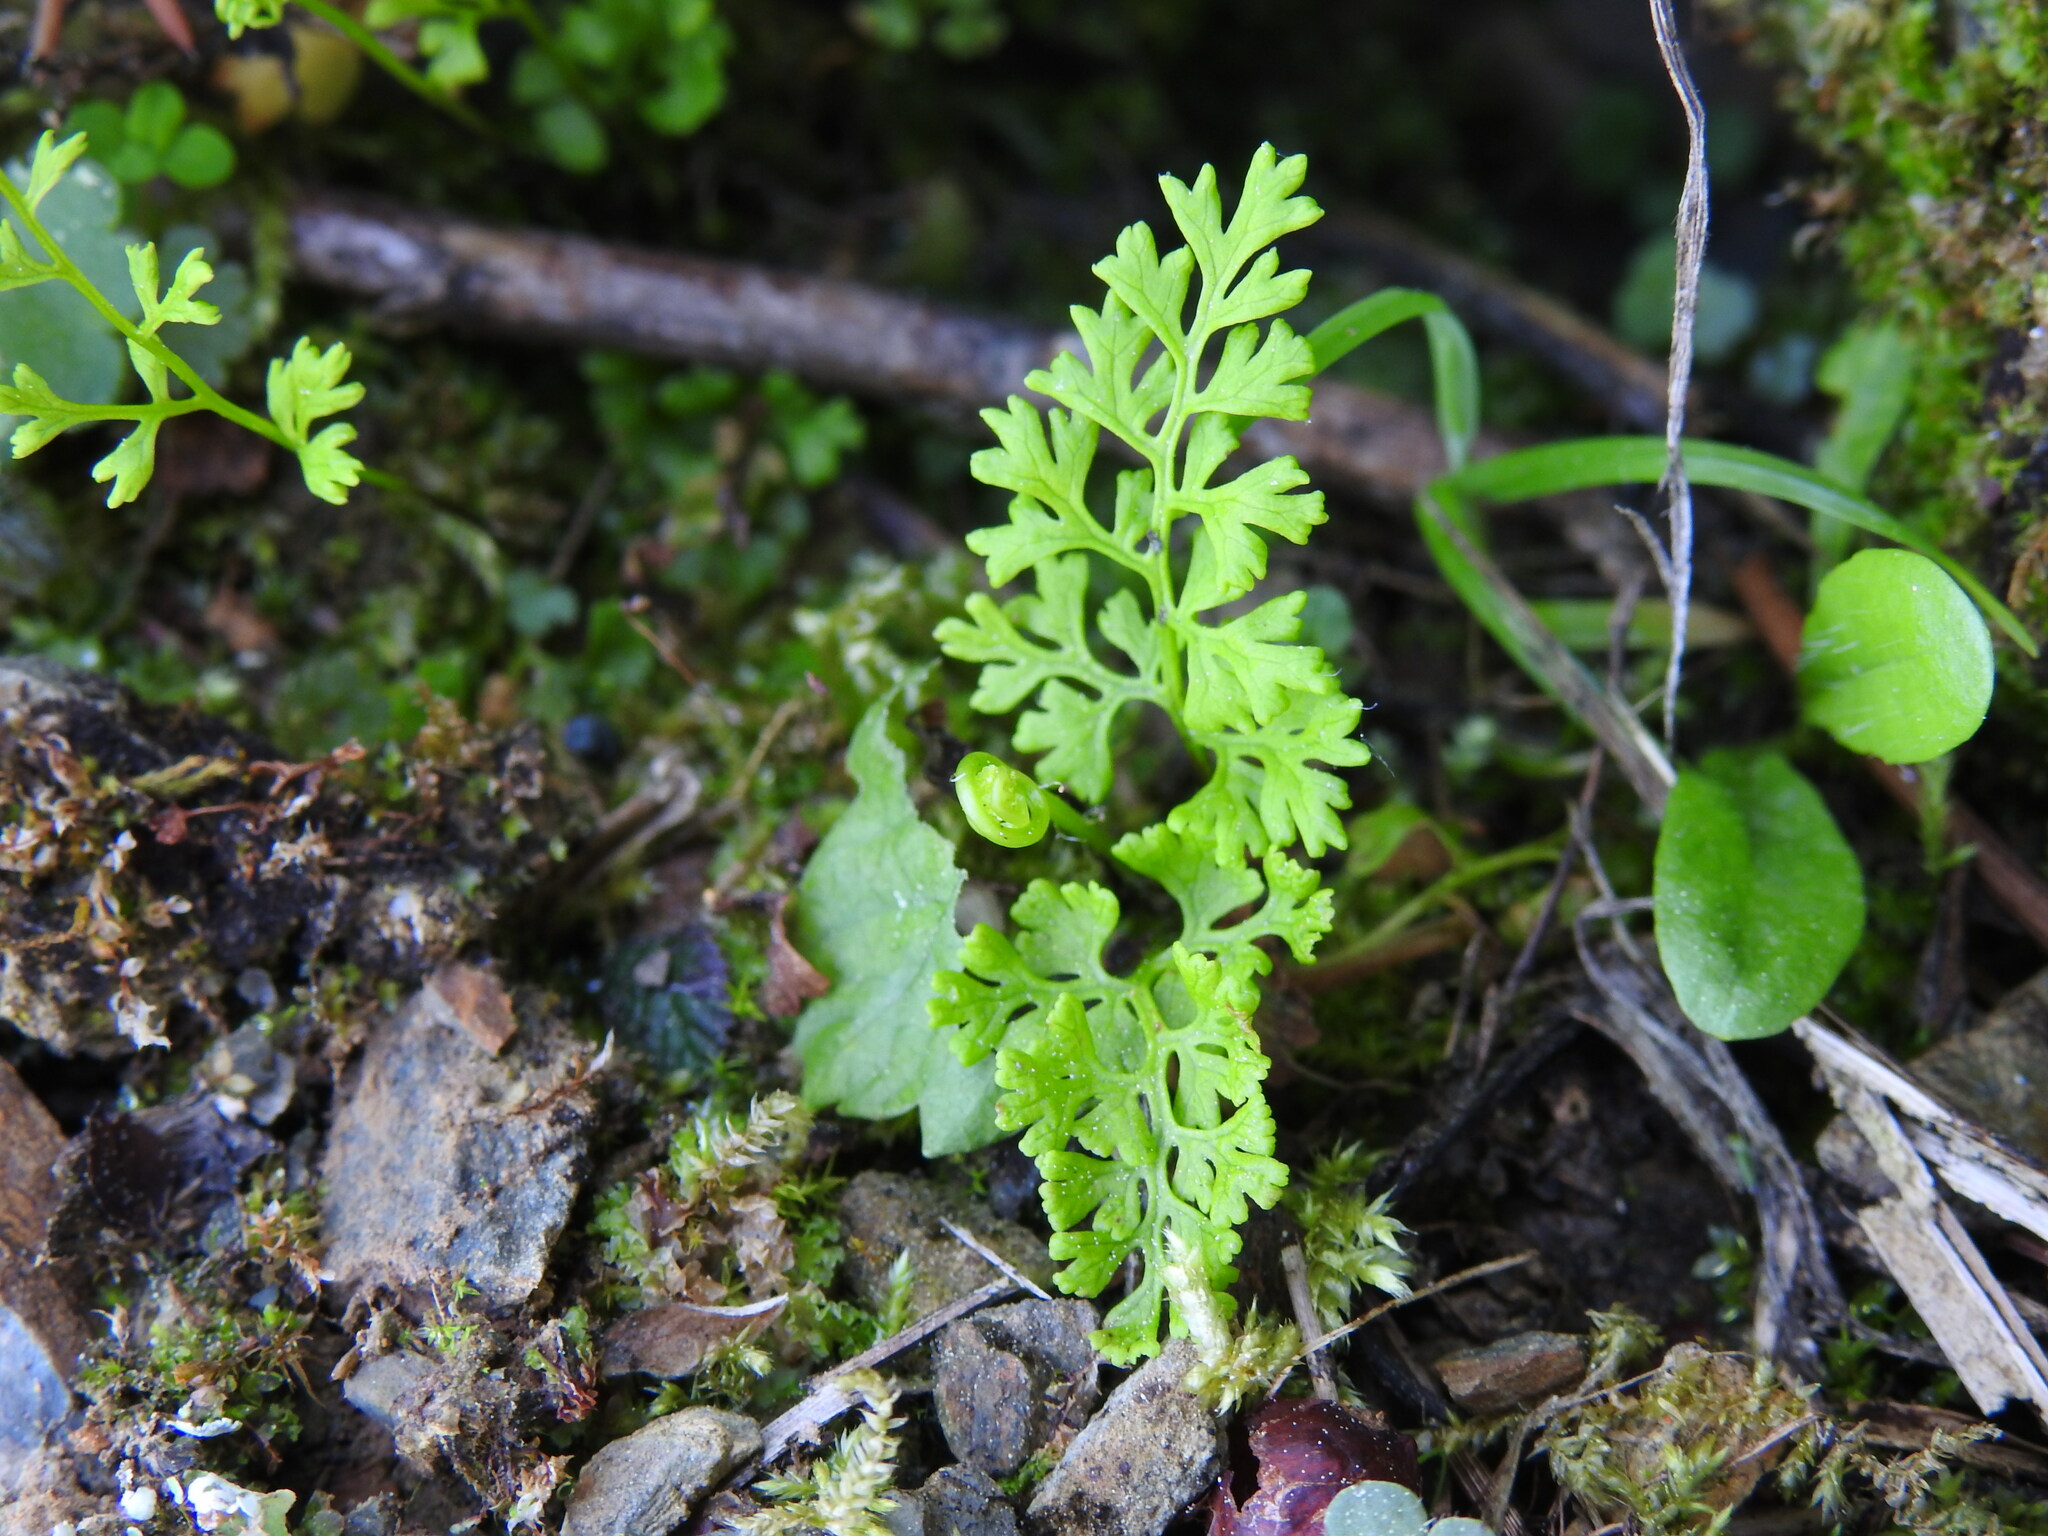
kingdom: Plantae
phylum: Tracheophyta
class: Polypodiopsida
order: Polypodiales
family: Pteridaceae
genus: Anogramma
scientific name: Anogramma leptophylla
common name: Jersey fern
